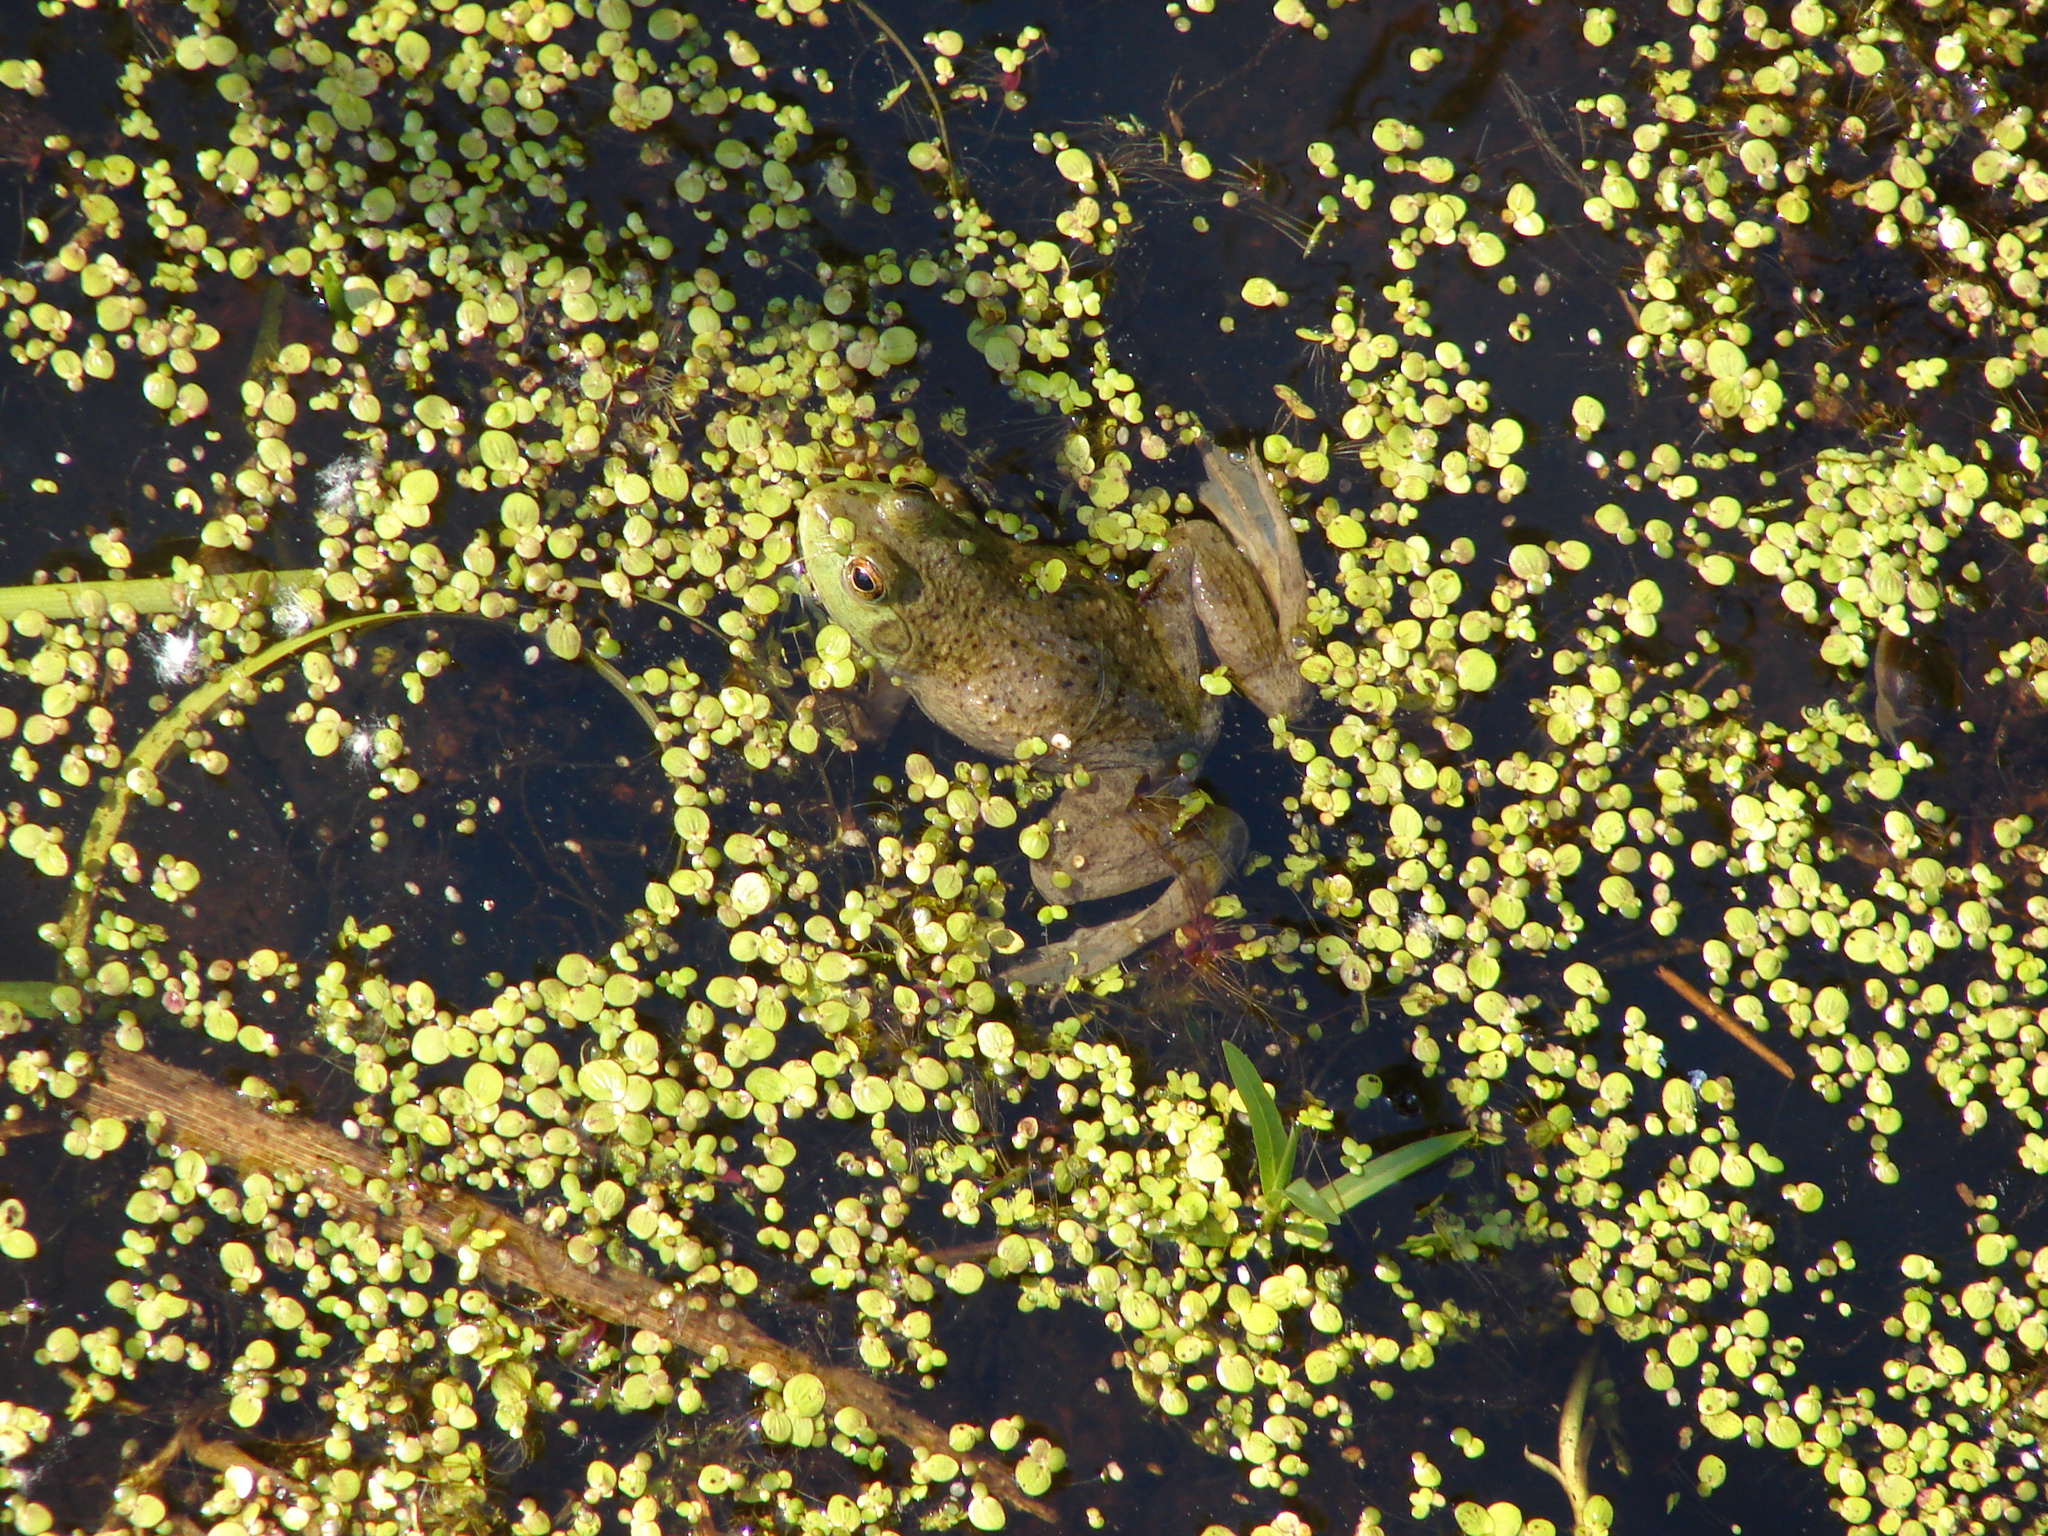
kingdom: Animalia
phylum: Chordata
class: Amphibia
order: Anura
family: Ranidae
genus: Lithobates
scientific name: Lithobates catesbeianus
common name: American bullfrog
